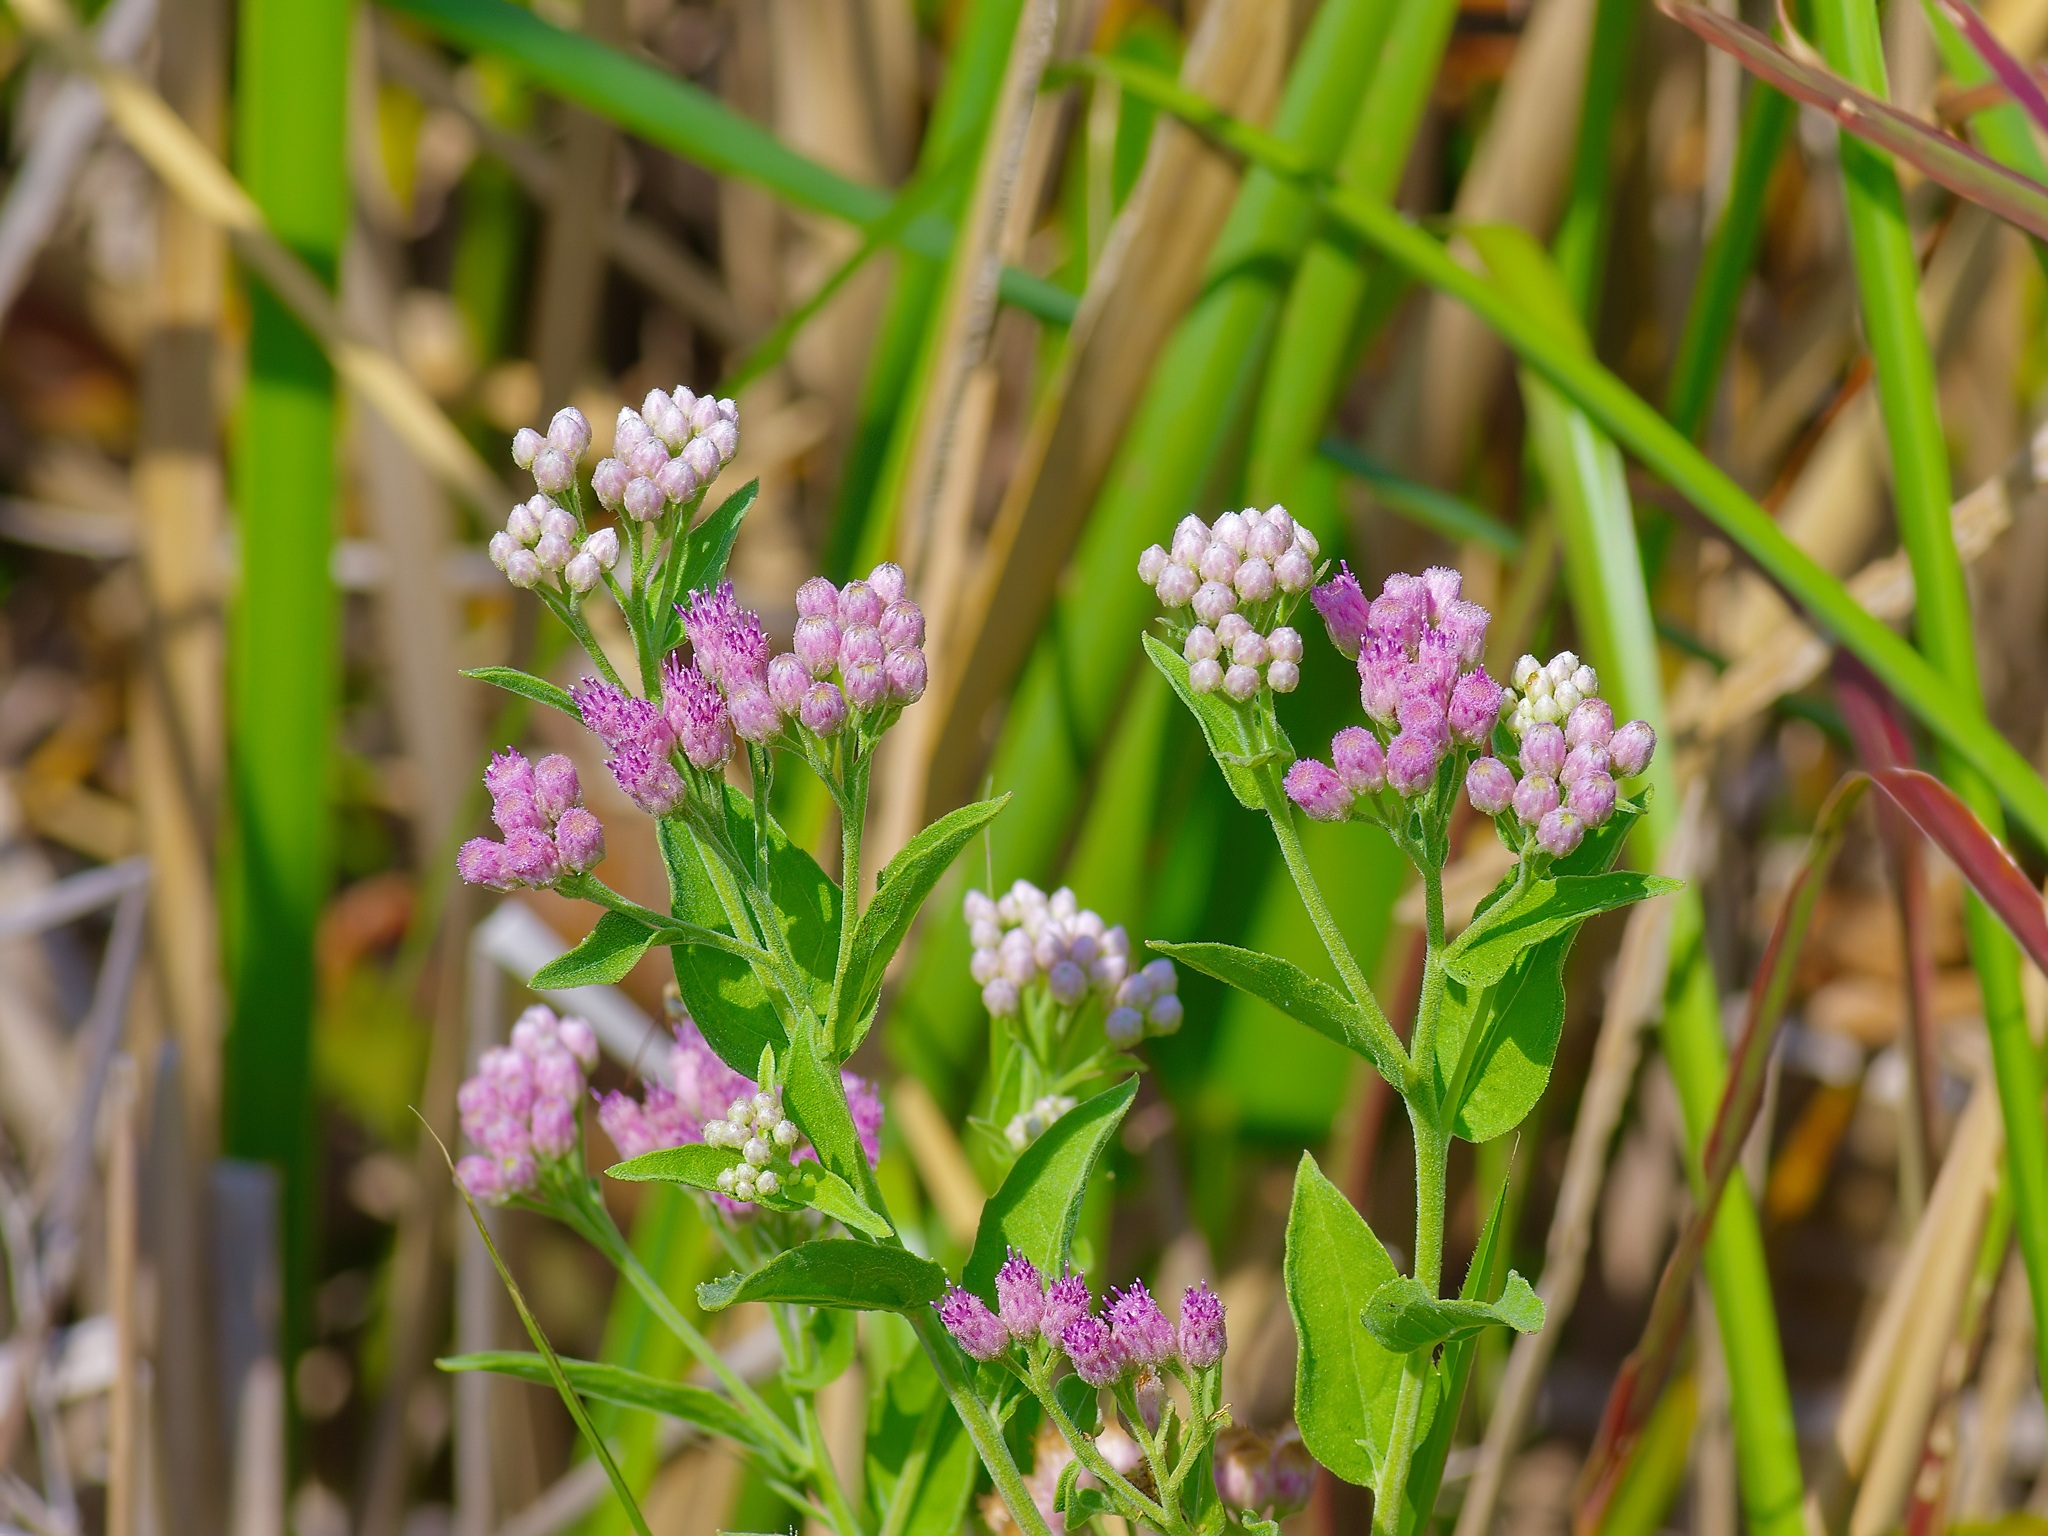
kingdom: Plantae
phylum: Tracheophyta
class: Magnoliopsida
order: Asterales
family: Asteraceae
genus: Pluchea
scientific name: Pluchea odorata
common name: Saltmarsh fleabane
